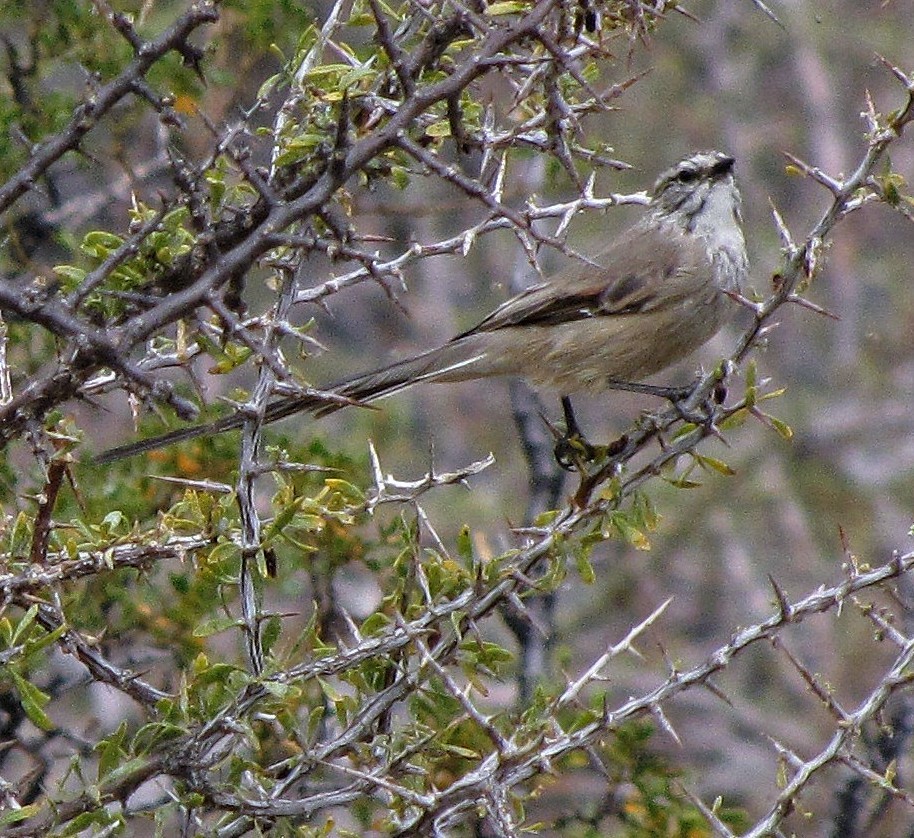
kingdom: Animalia
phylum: Chordata
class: Aves
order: Passeriformes
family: Furnariidae
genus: Leptasthenura
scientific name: Leptasthenura aegithaloides
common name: Plain-mantled tit-spinetail
